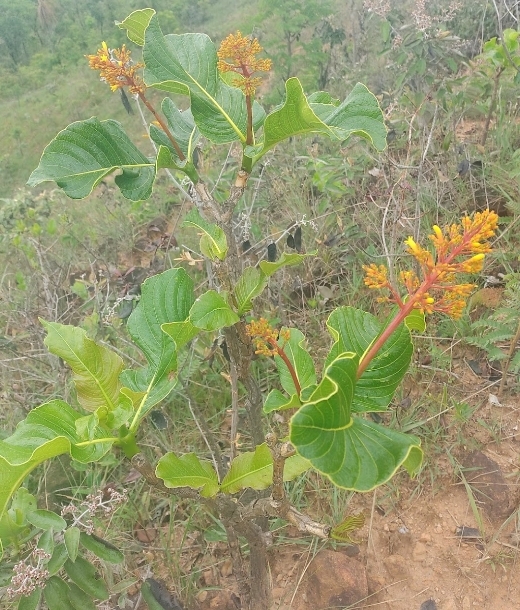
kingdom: Plantae
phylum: Tracheophyta
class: Magnoliopsida
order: Gentianales
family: Rubiaceae
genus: Palicourea
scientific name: Palicourea rigida
